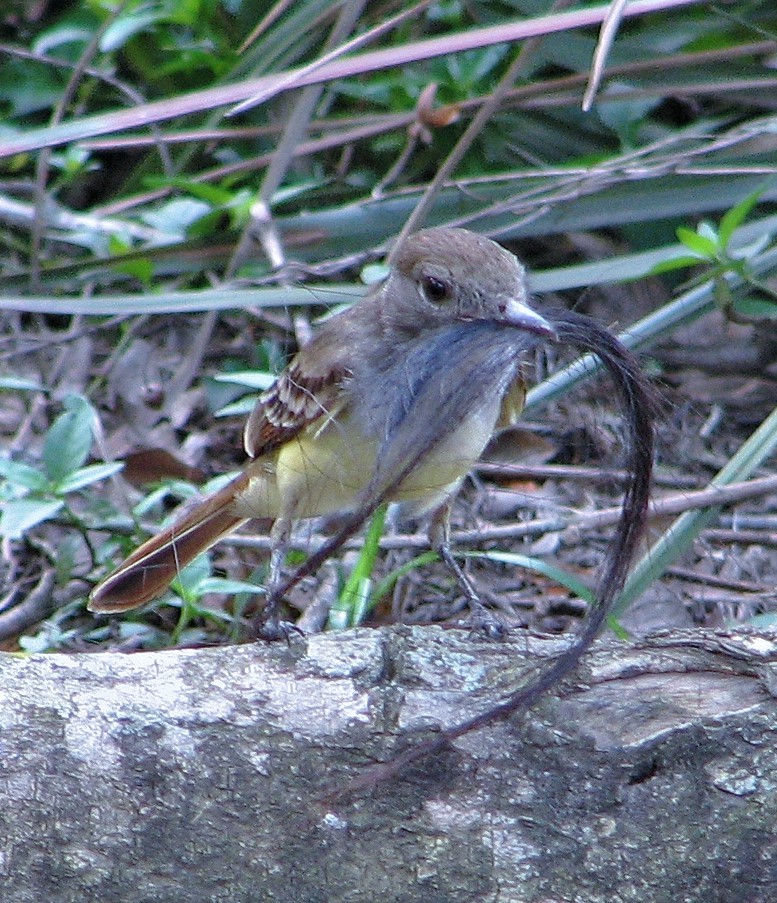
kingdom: Animalia
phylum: Chordata
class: Aves
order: Passeriformes
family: Tyrannidae
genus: Myiarchus
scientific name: Myiarchus tyrannulus
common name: Brown-crested flycatcher
